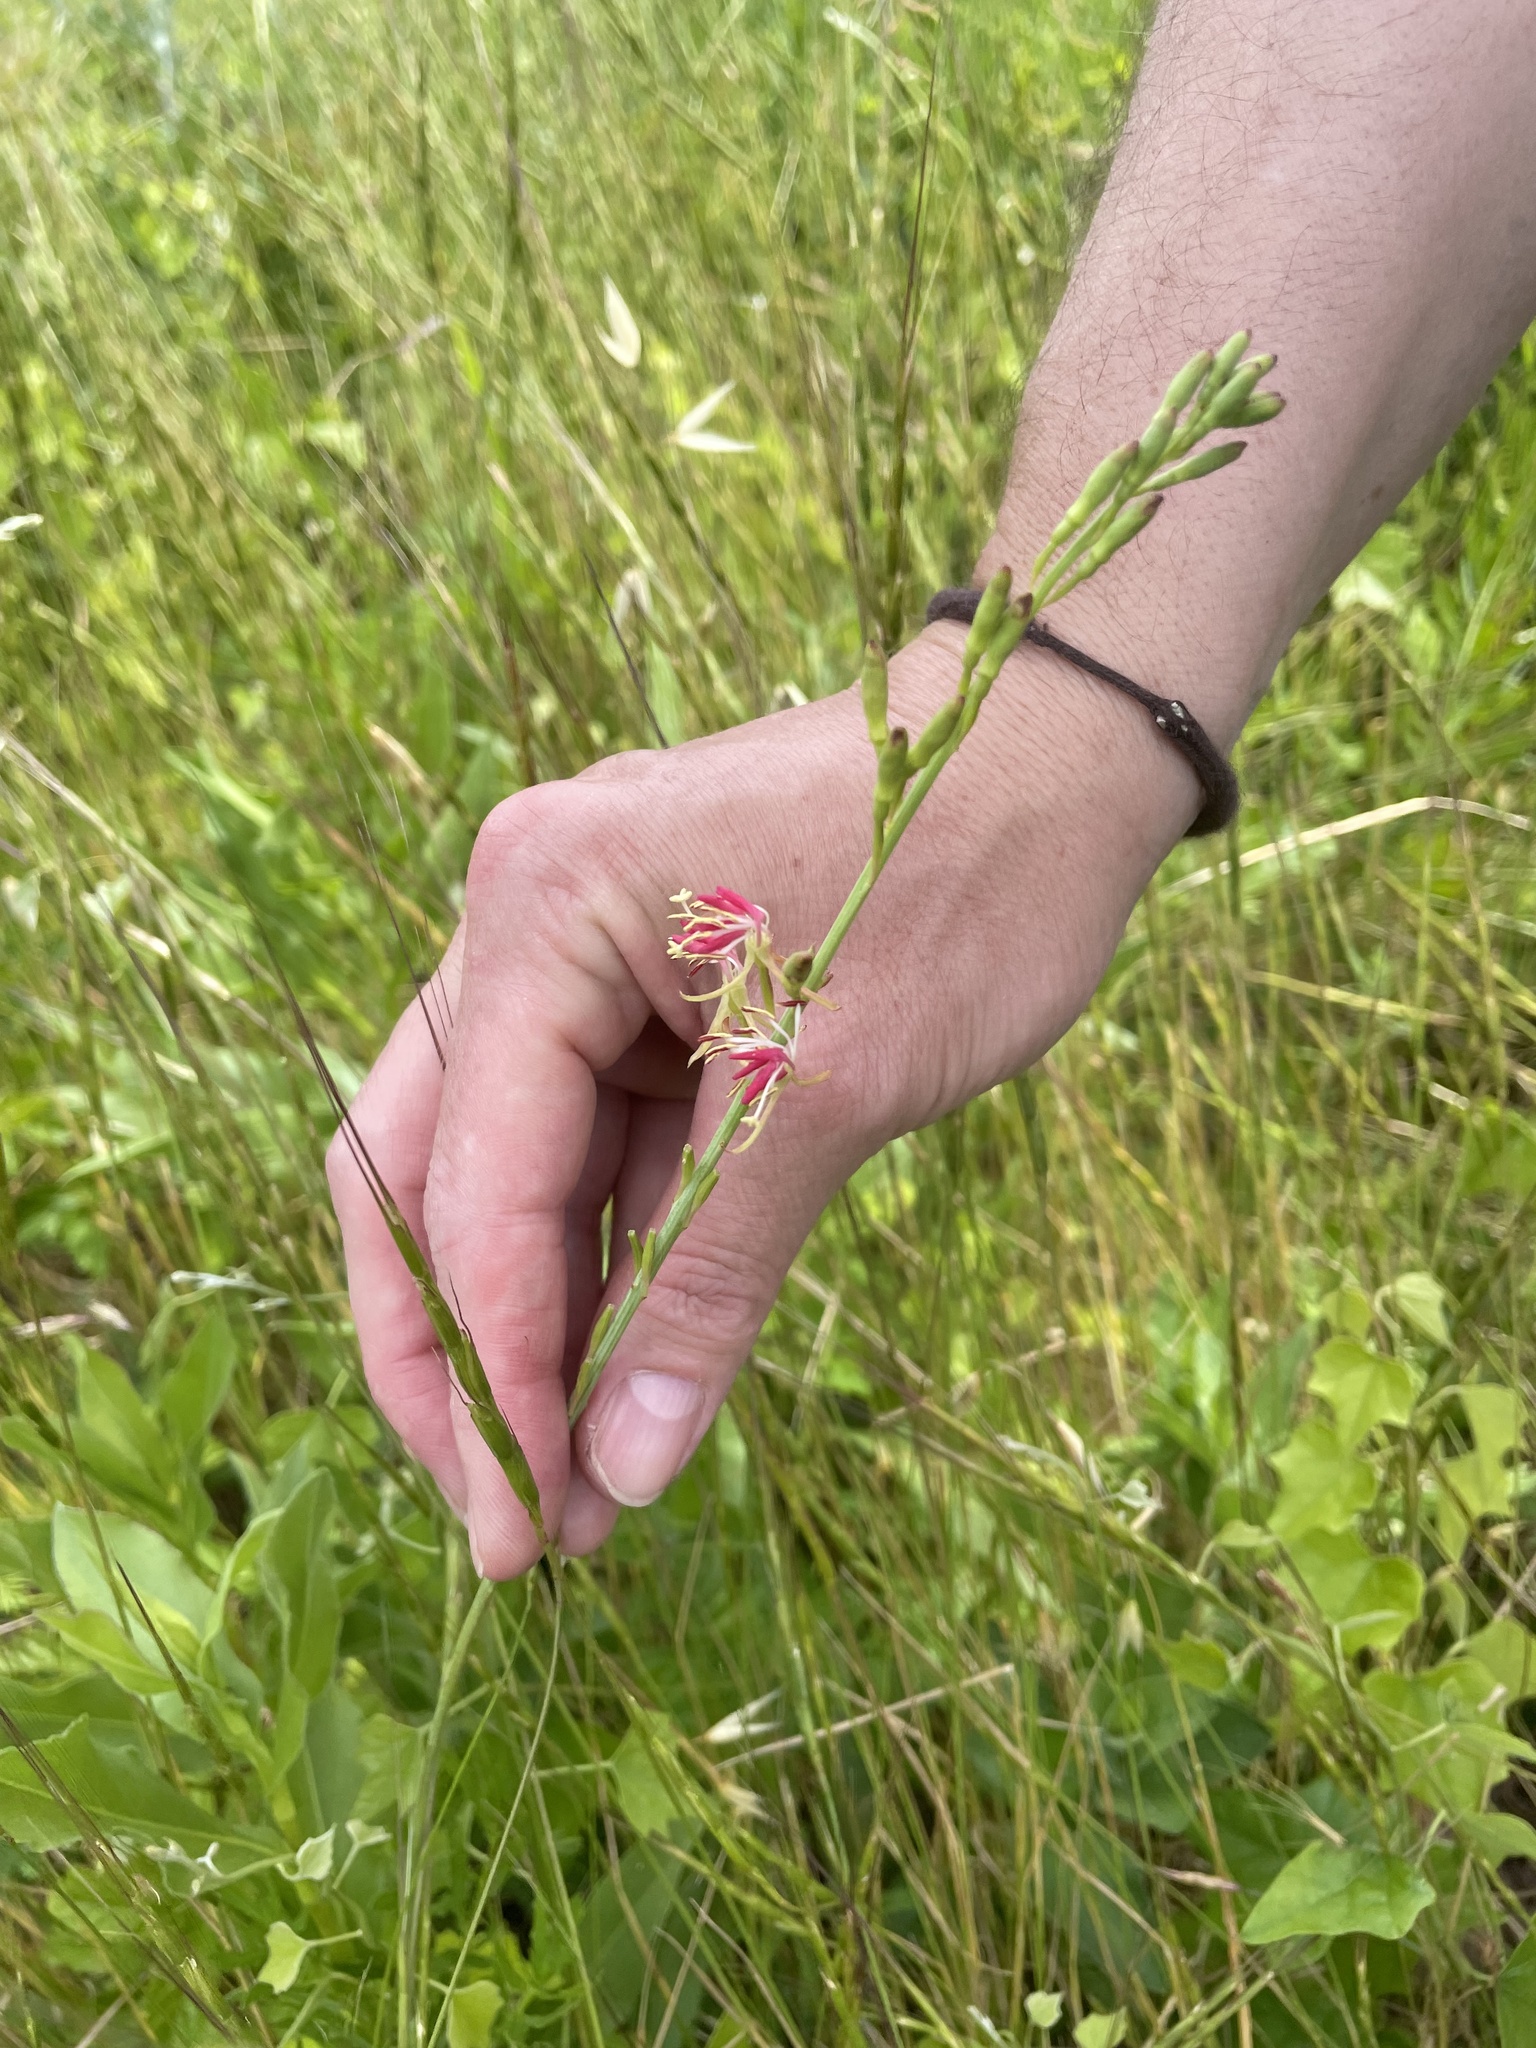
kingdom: Plantae
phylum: Tracheophyta
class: Magnoliopsida
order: Myrtales
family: Onagraceae
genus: Oenothera
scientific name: Oenothera suffulta
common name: Kisses
